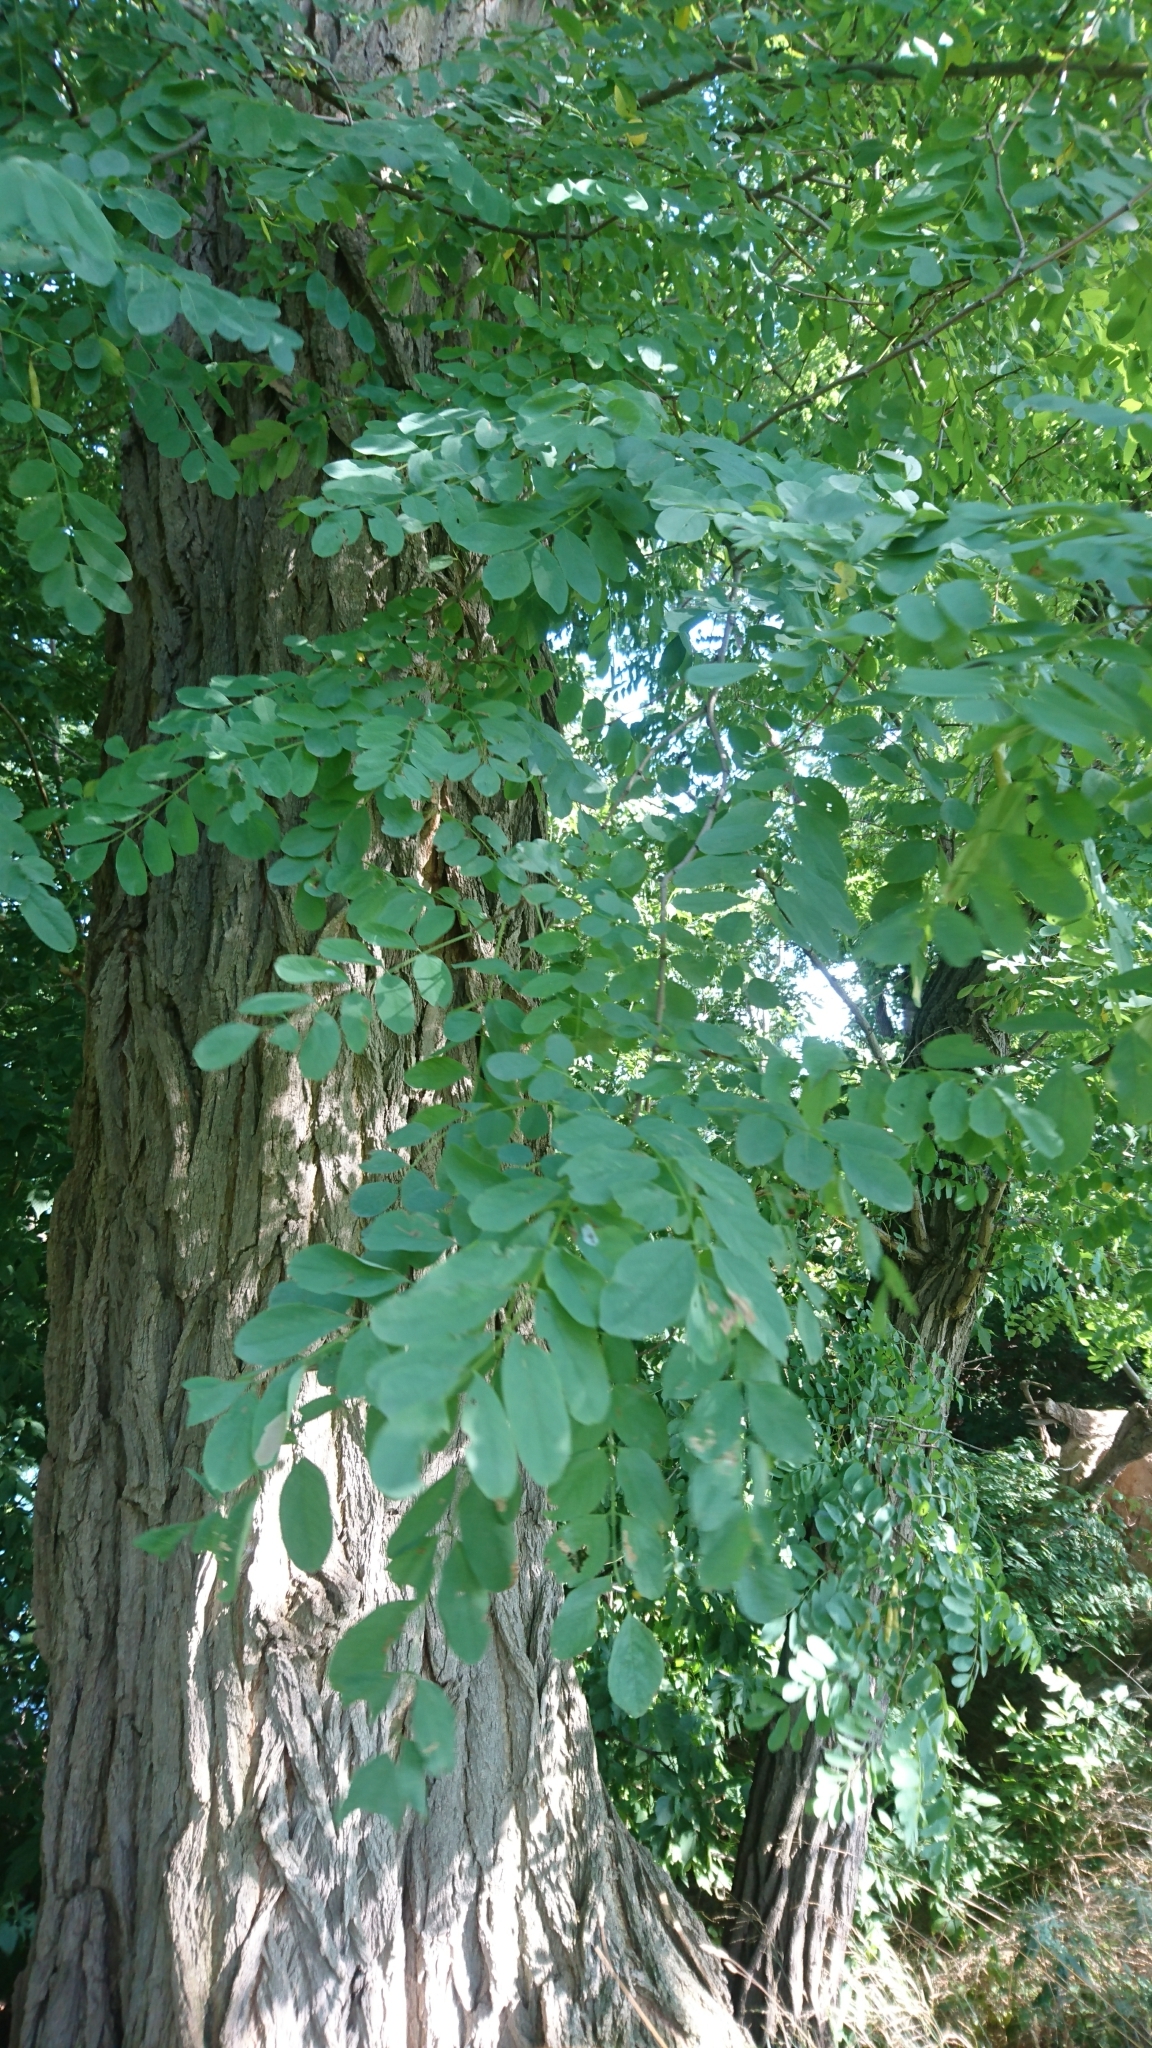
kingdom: Plantae
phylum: Tracheophyta
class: Magnoliopsida
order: Fabales
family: Fabaceae
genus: Robinia
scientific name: Robinia pseudoacacia
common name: Black locust
